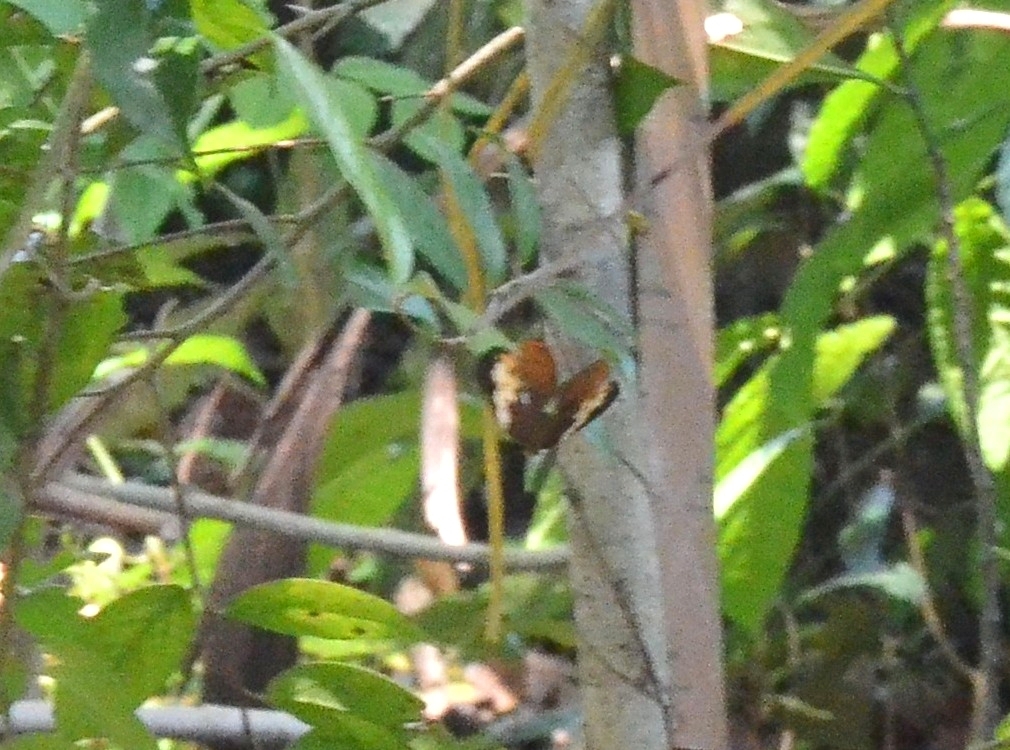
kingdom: Animalia
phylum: Arthropoda
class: Insecta
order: Lepidoptera
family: Nymphalidae
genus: Cupha
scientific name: Cupha erymanthis
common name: Rustic
